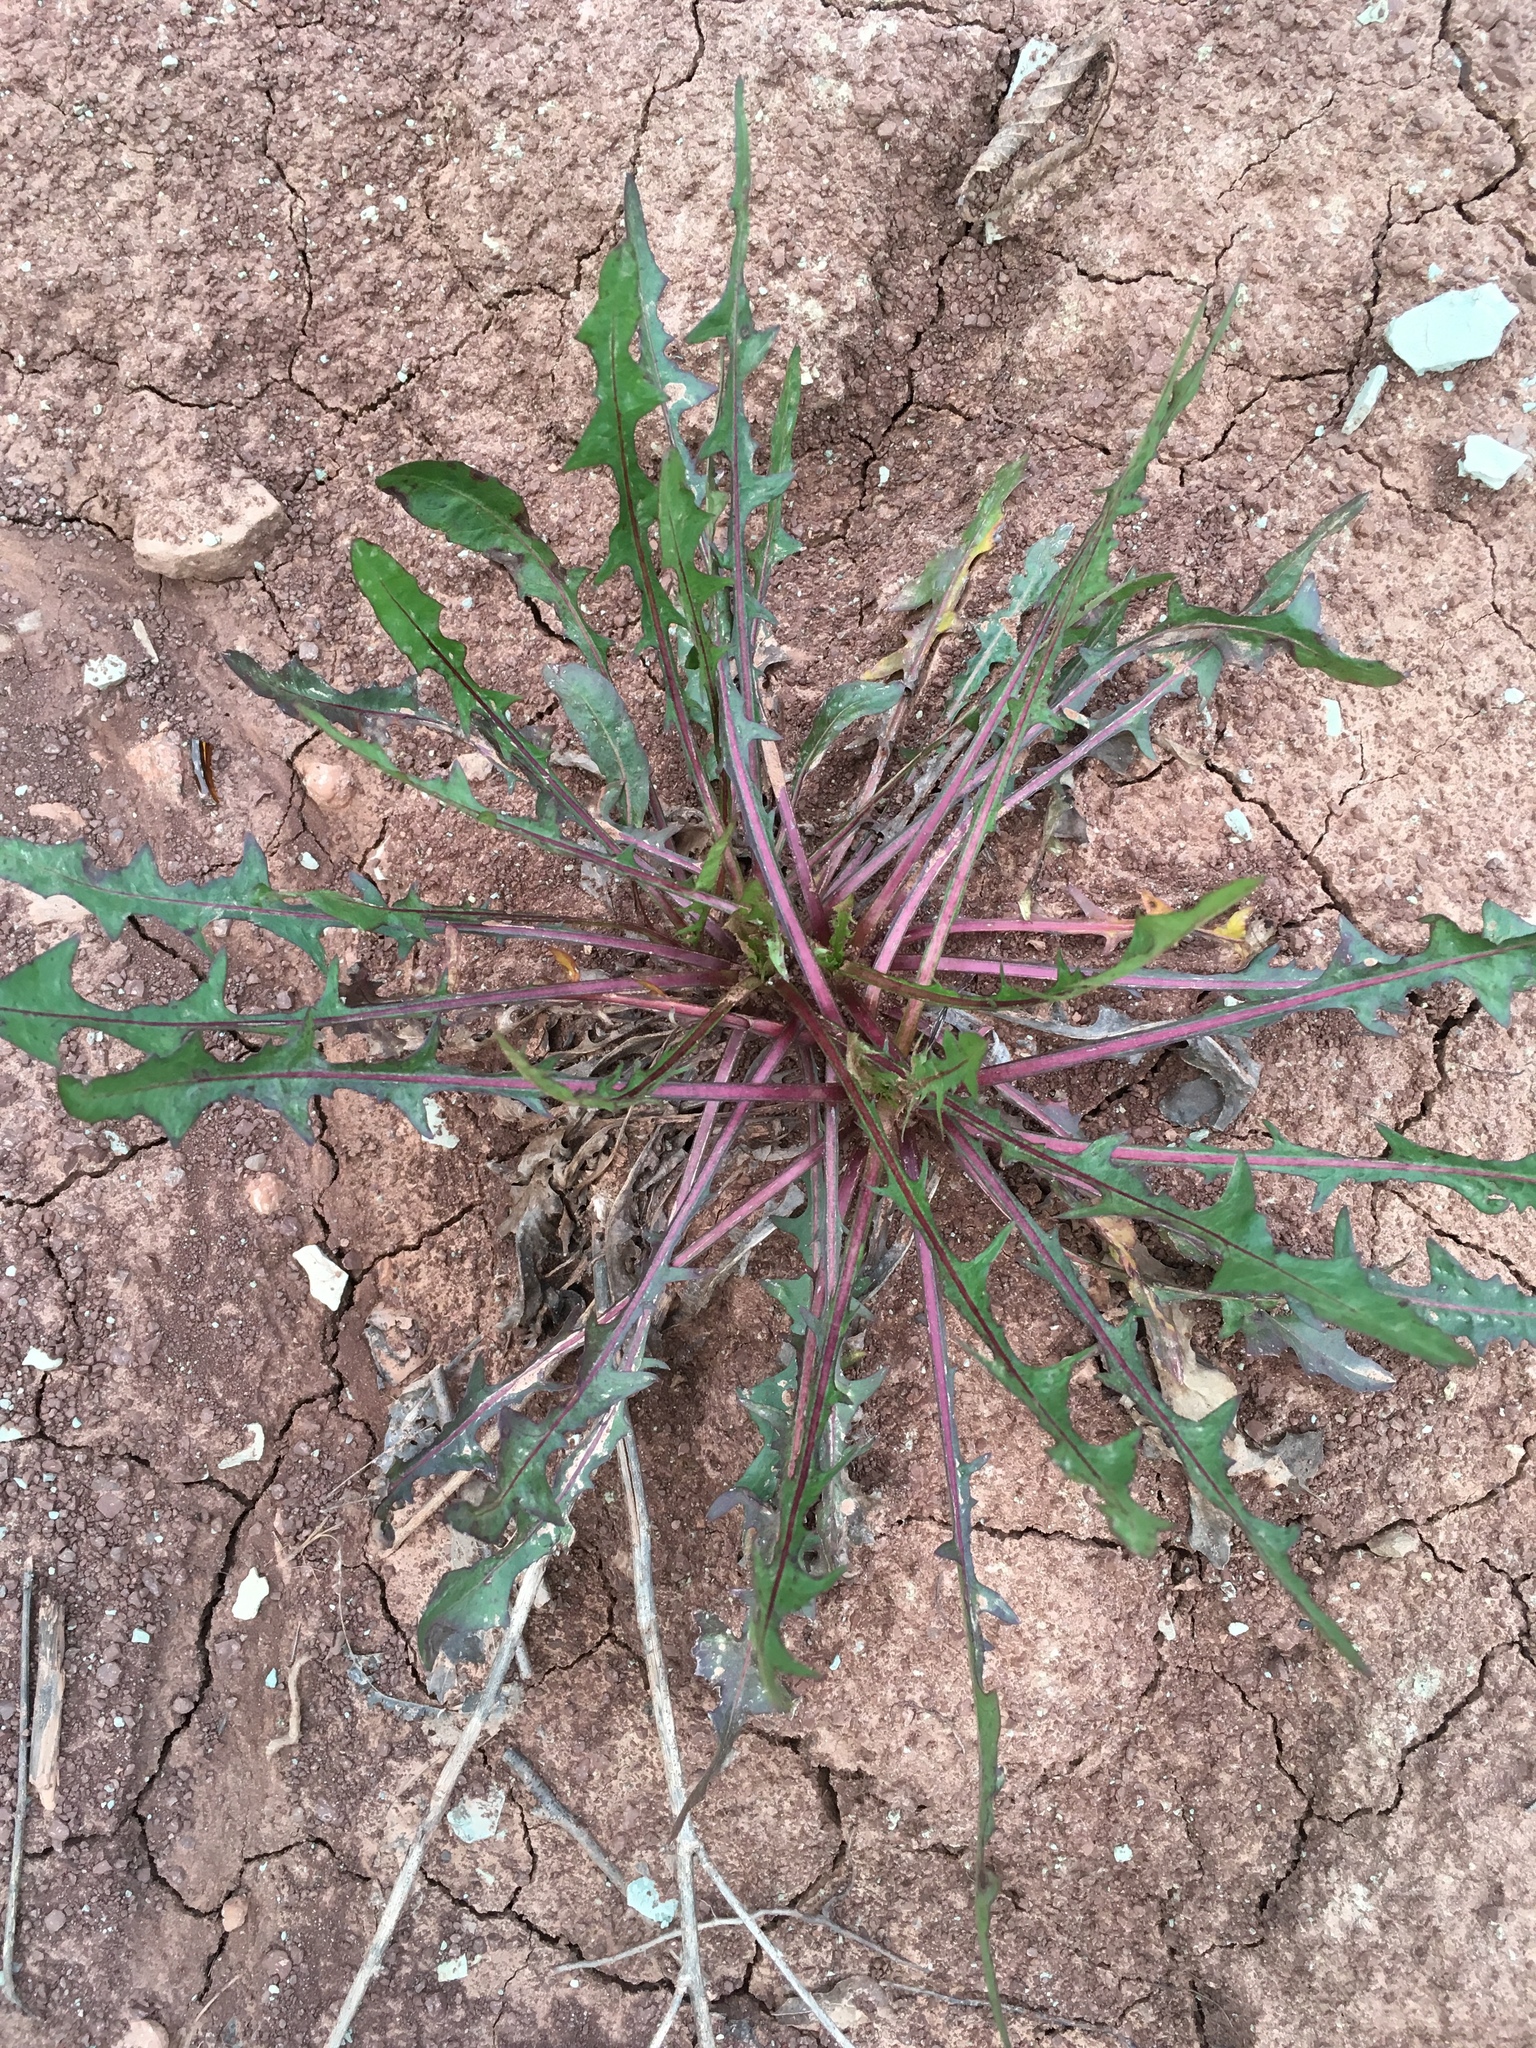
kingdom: Plantae
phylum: Tracheophyta
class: Magnoliopsida
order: Asterales
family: Asteraceae
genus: Taraxacum
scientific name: Taraxacum officinale
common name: Common dandelion
